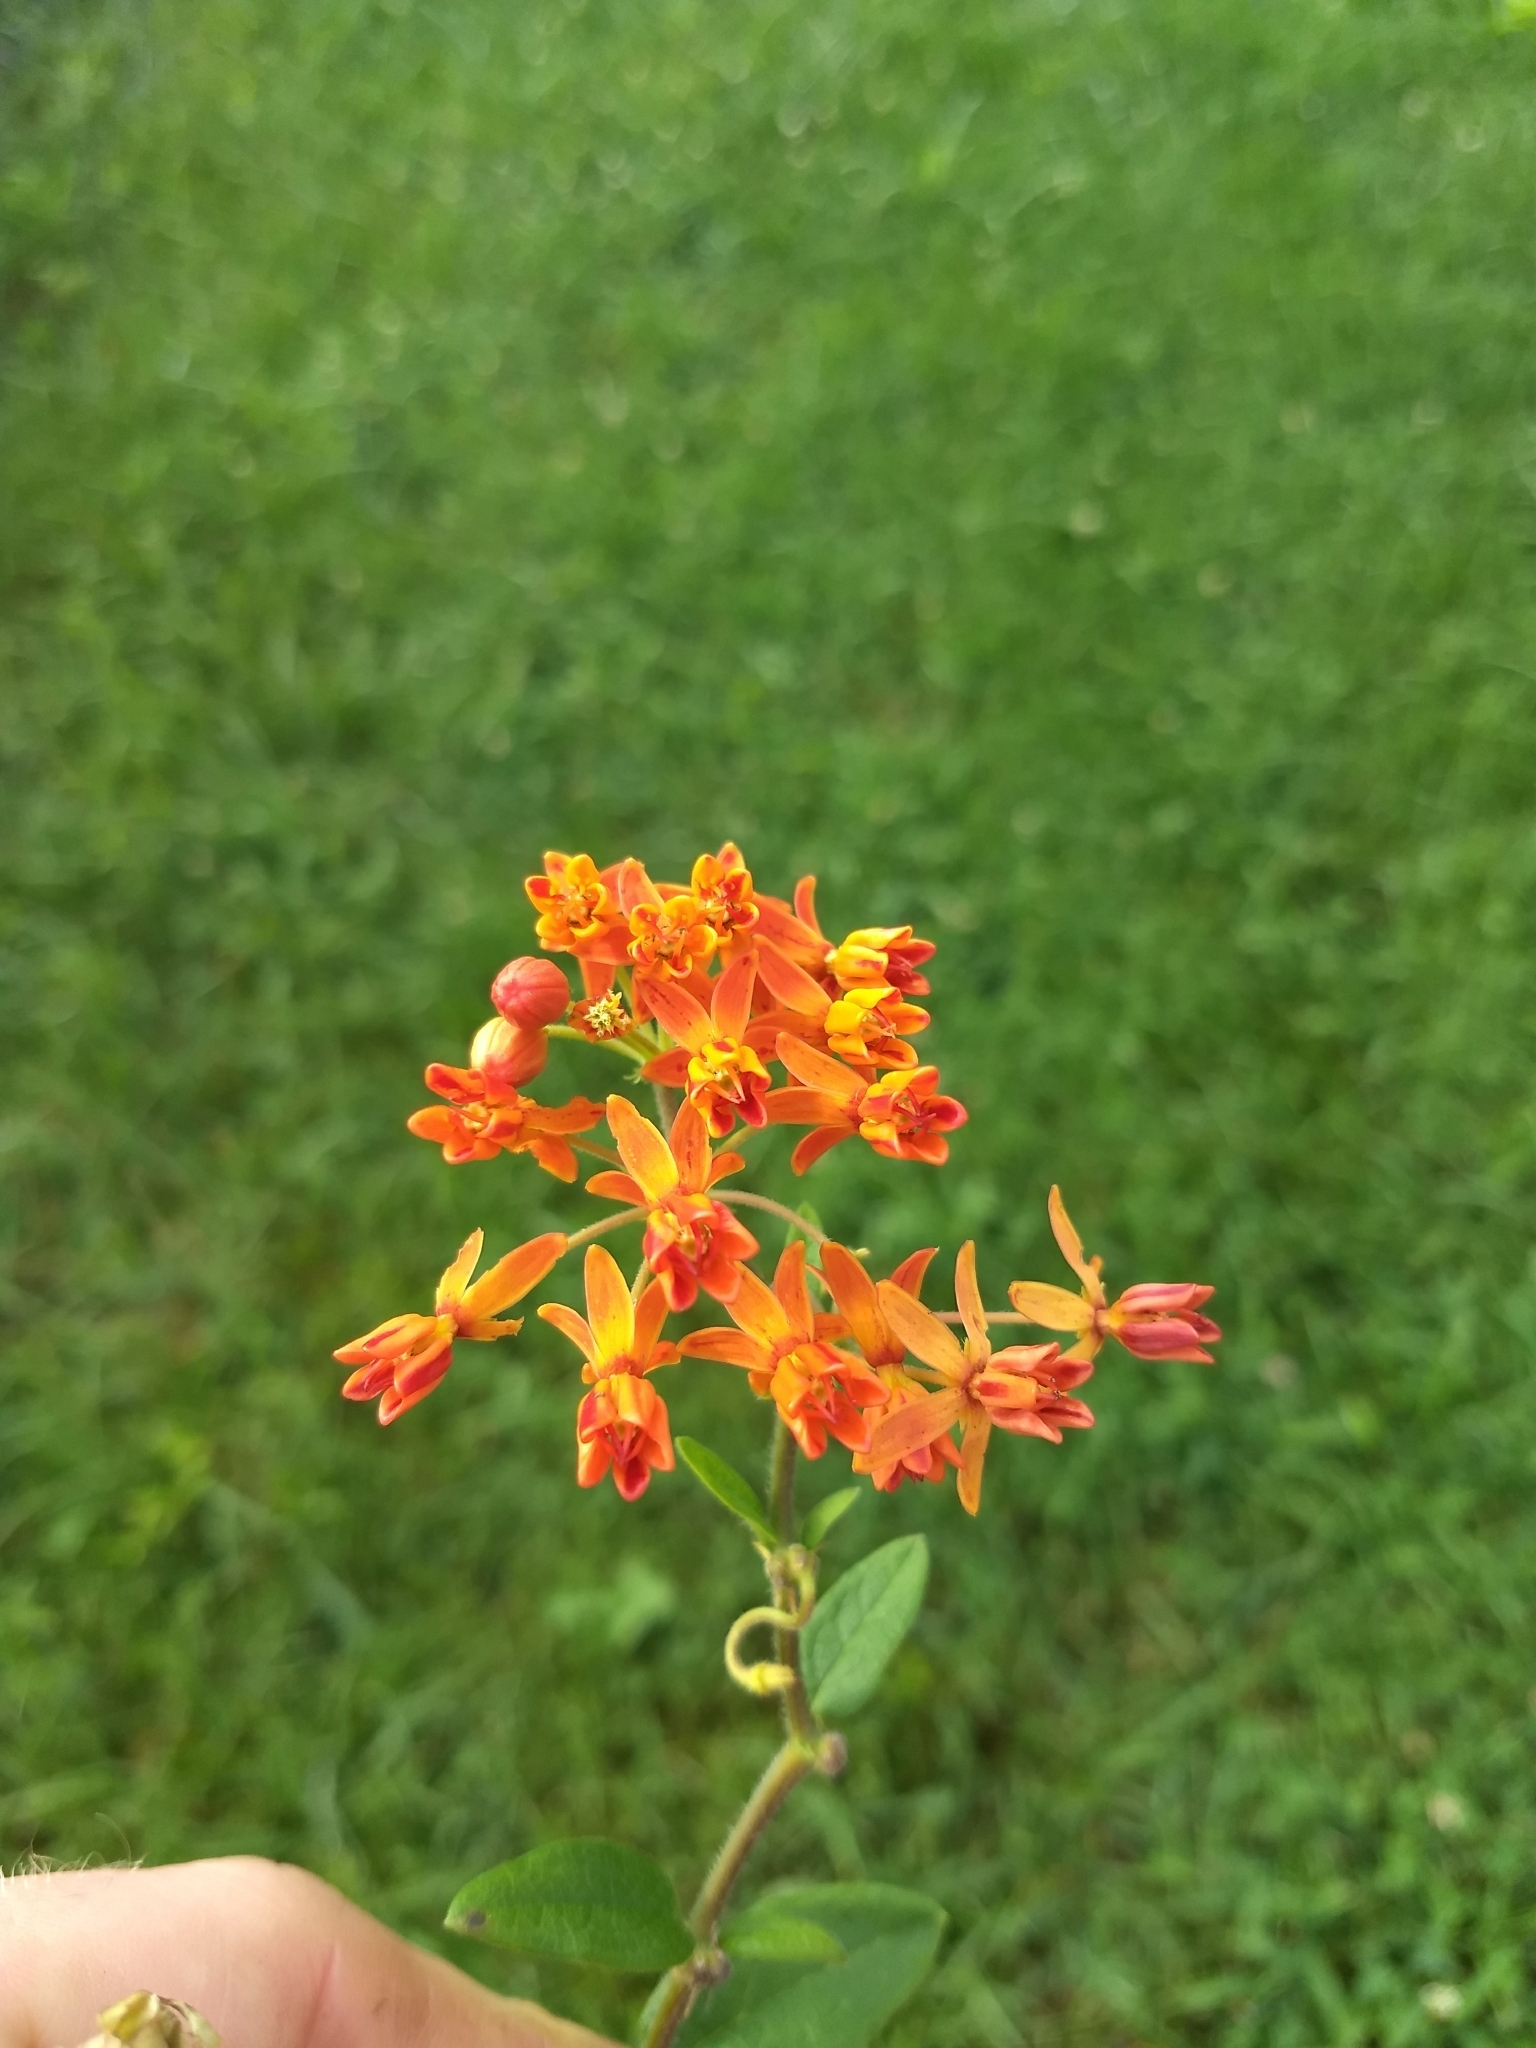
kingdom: Plantae
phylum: Tracheophyta
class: Magnoliopsida
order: Gentianales
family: Apocynaceae
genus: Asclepias
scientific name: Asclepias tuberosa
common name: Butterfly milkweed
